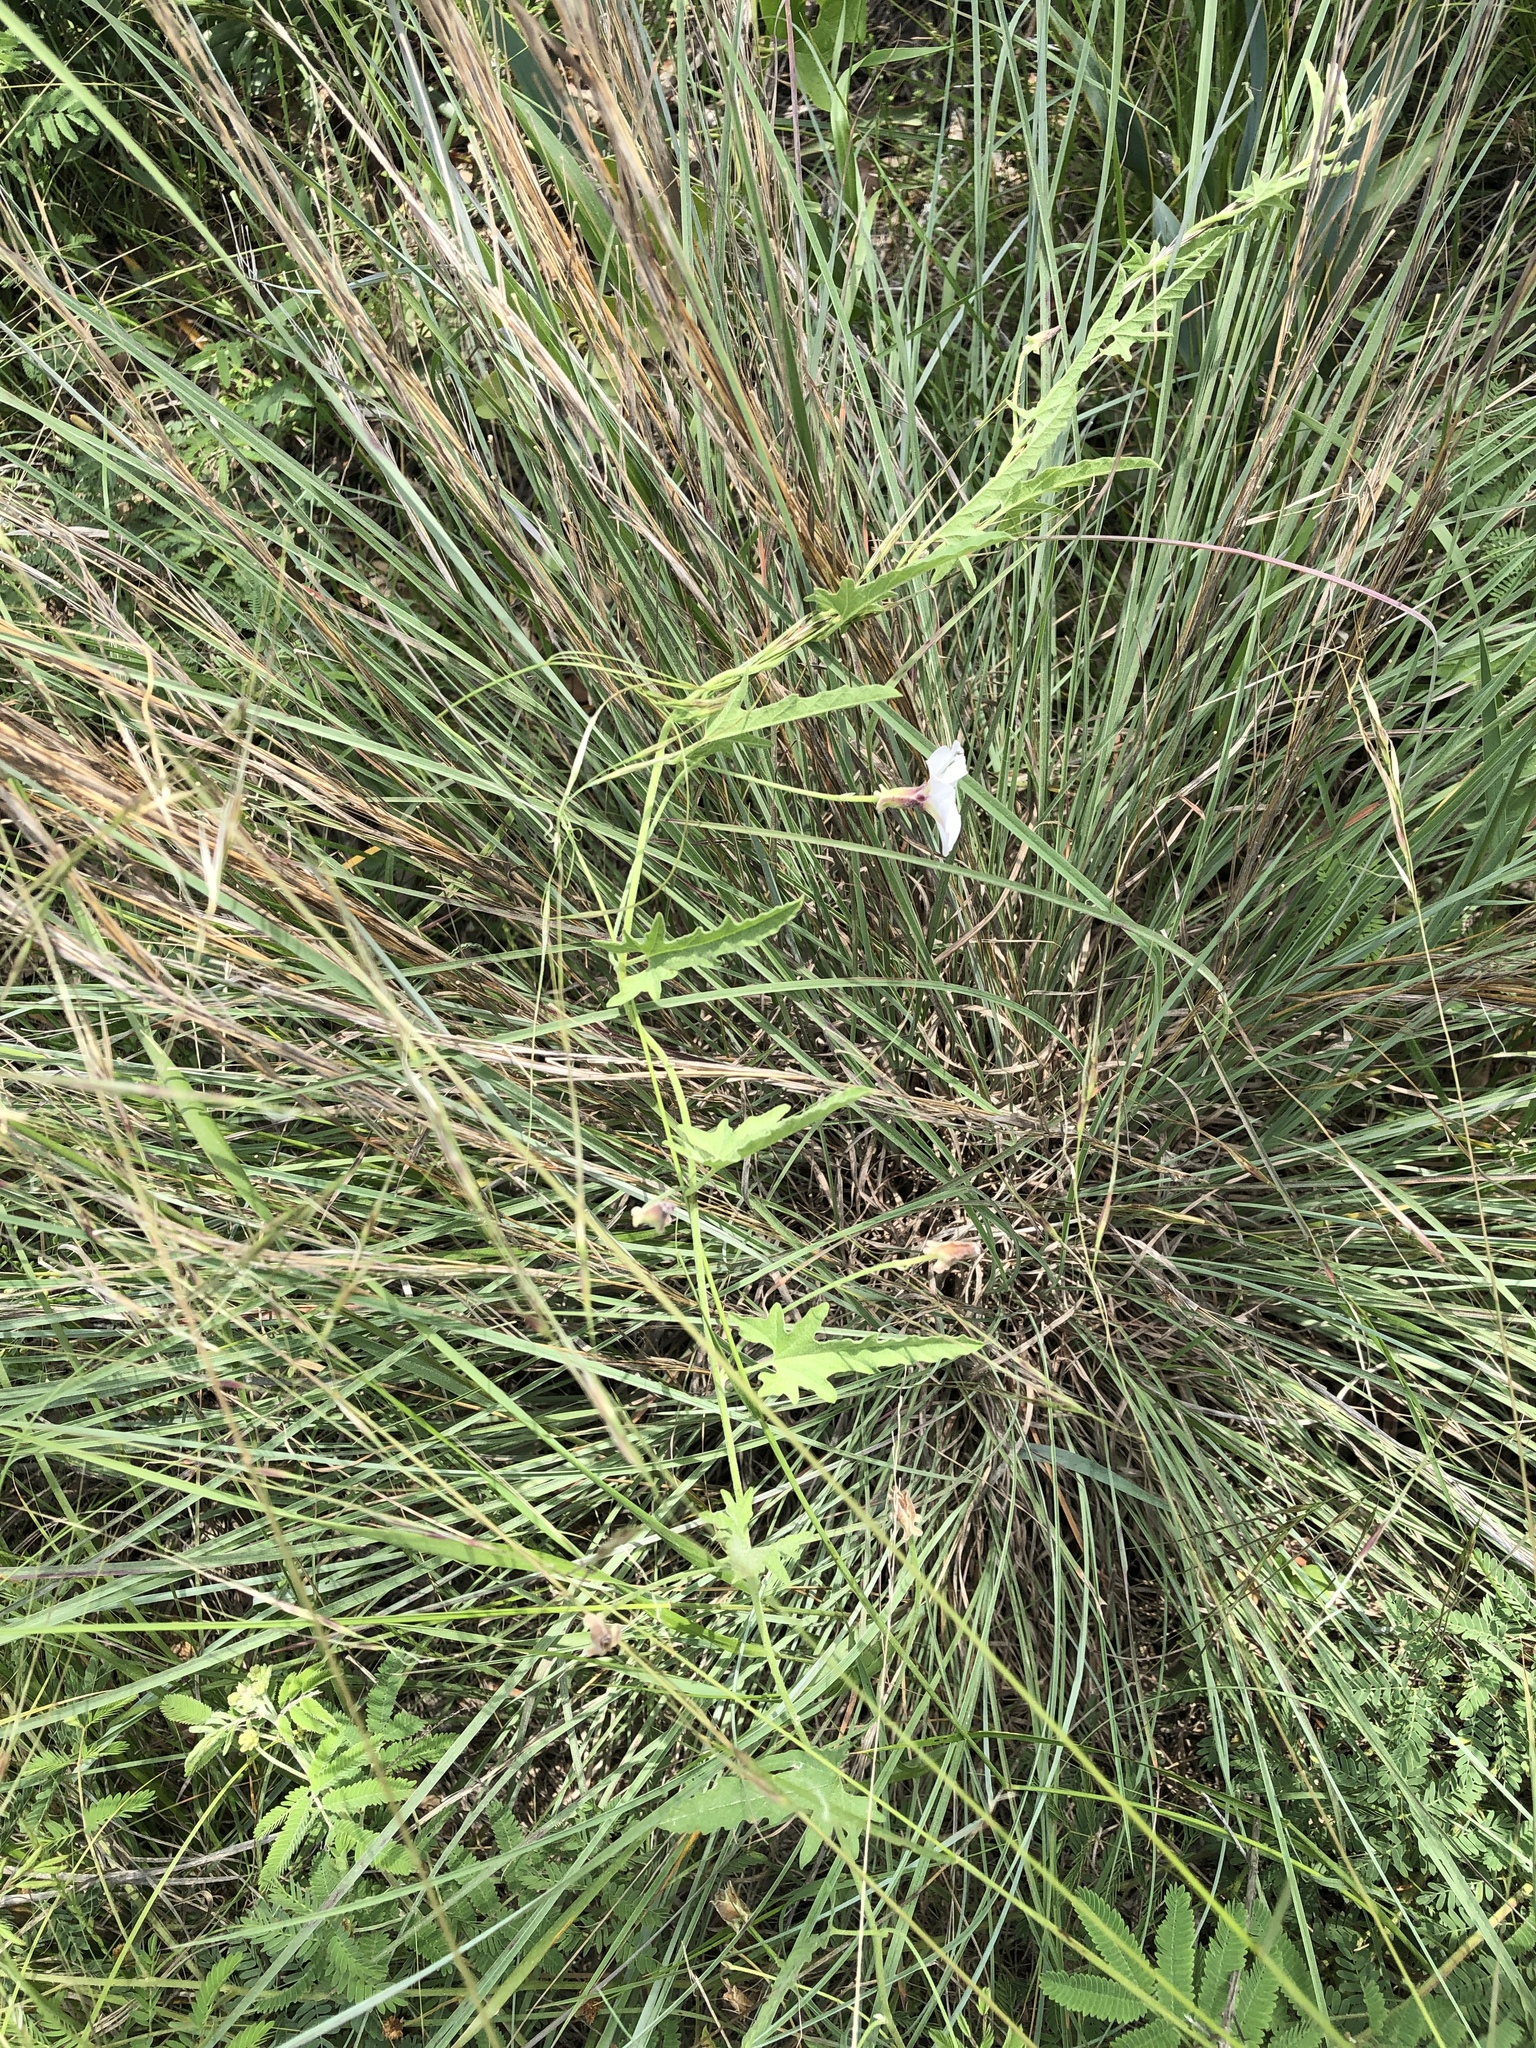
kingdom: Plantae
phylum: Tracheophyta
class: Magnoliopsida
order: Solanales
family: Convolvulaceae
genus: Convolvulus
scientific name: Convolvulus equitans
